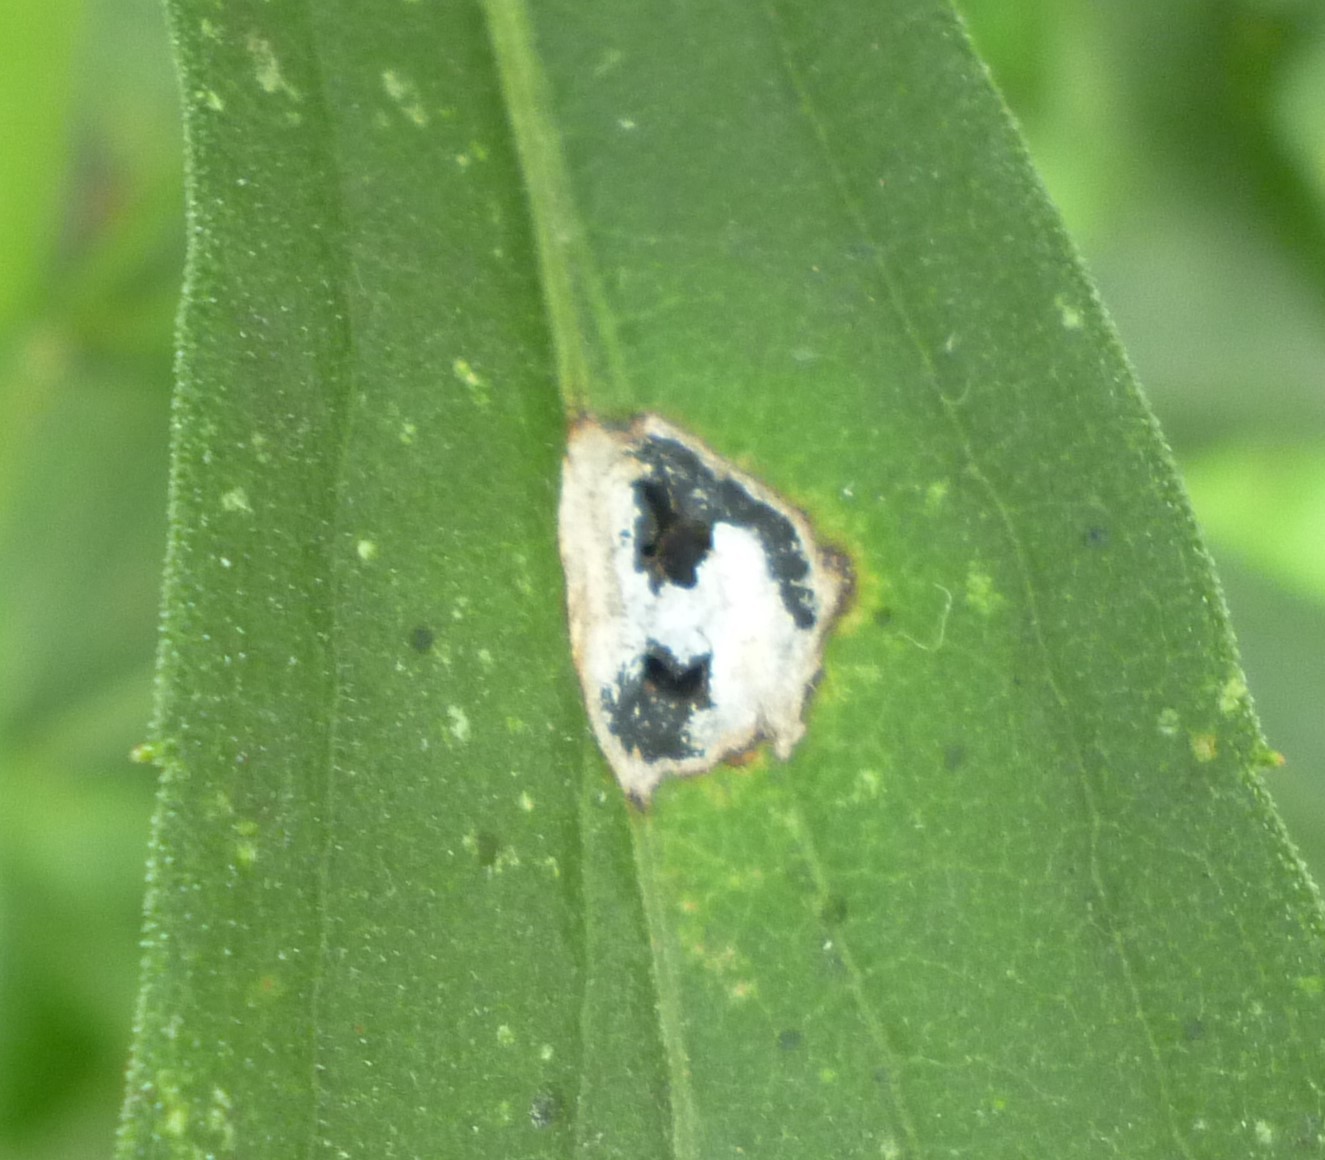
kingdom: Animalia
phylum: Arthropoda
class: Insecta
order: Diptera
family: Cecidomyiidae
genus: Asteromyia
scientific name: Asteromyia carbonifera
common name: Carbonifera goldenrod gall midge
